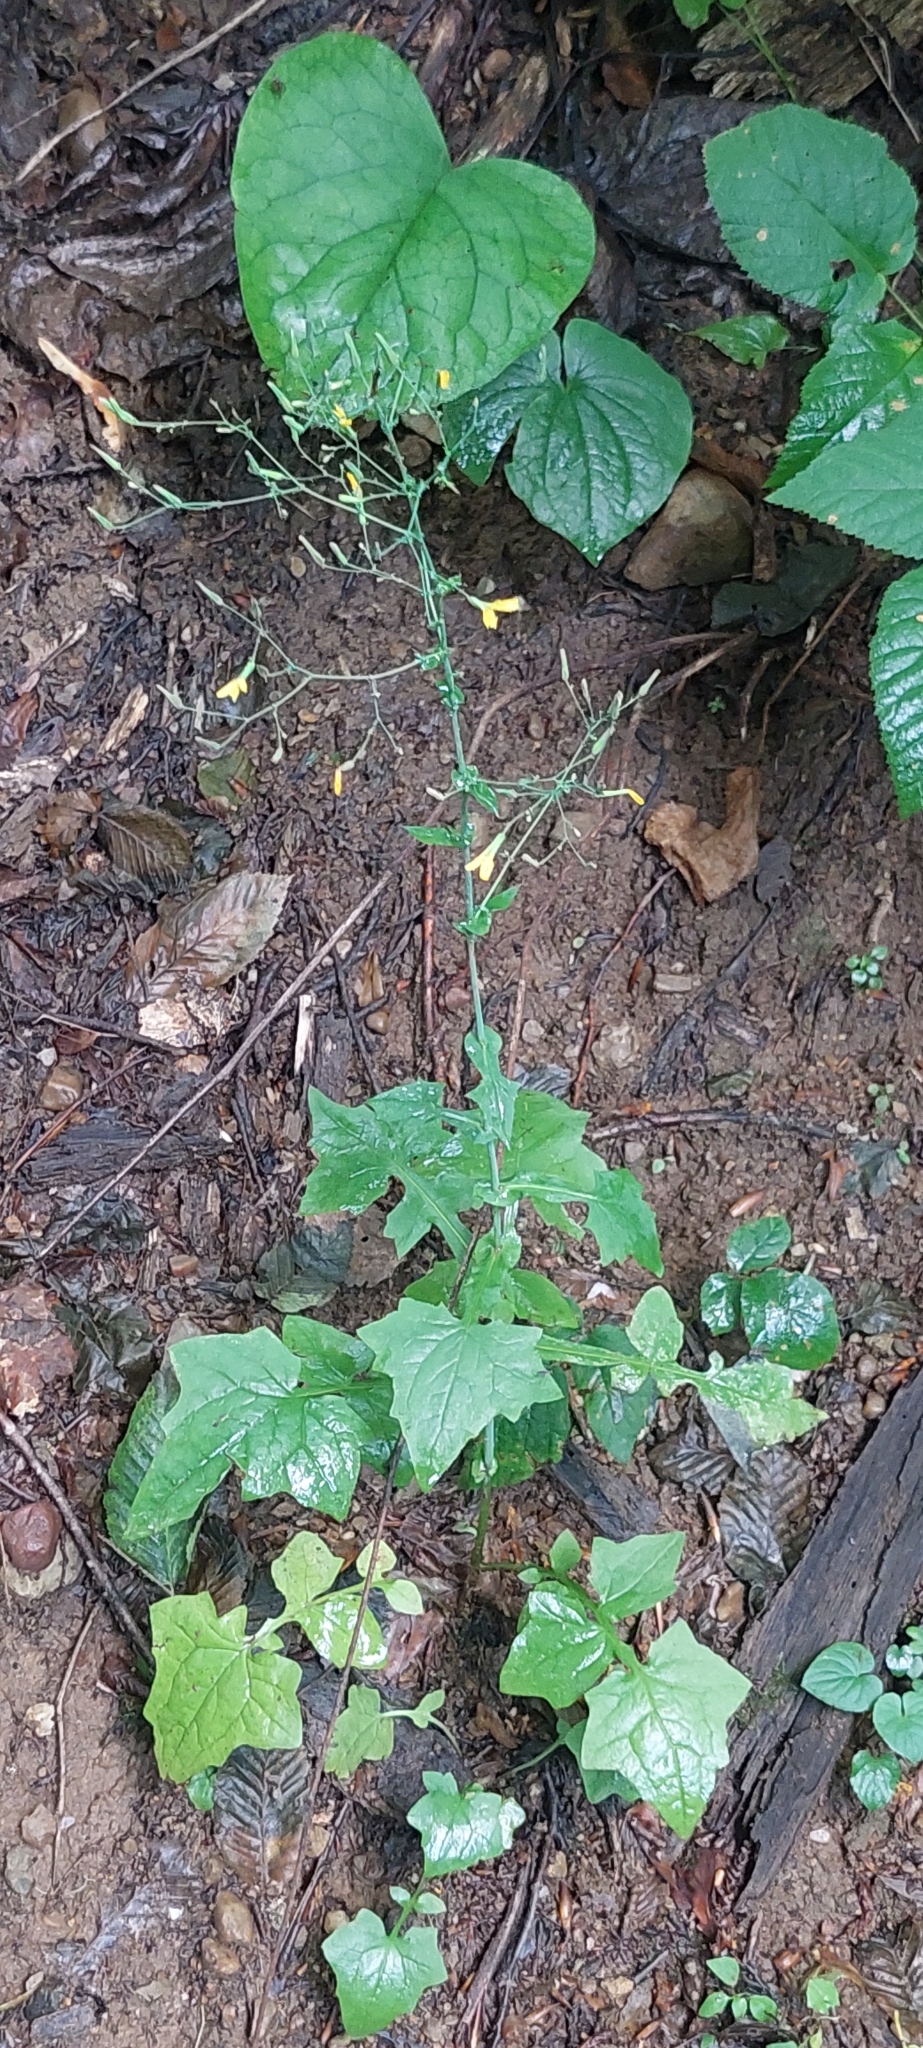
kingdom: Plantae
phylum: Tracheophyta
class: Magnoliopsida
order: Asterales
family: Asteraceae
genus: Mycelis
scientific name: Mycelis muralis
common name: Wall lettuce
